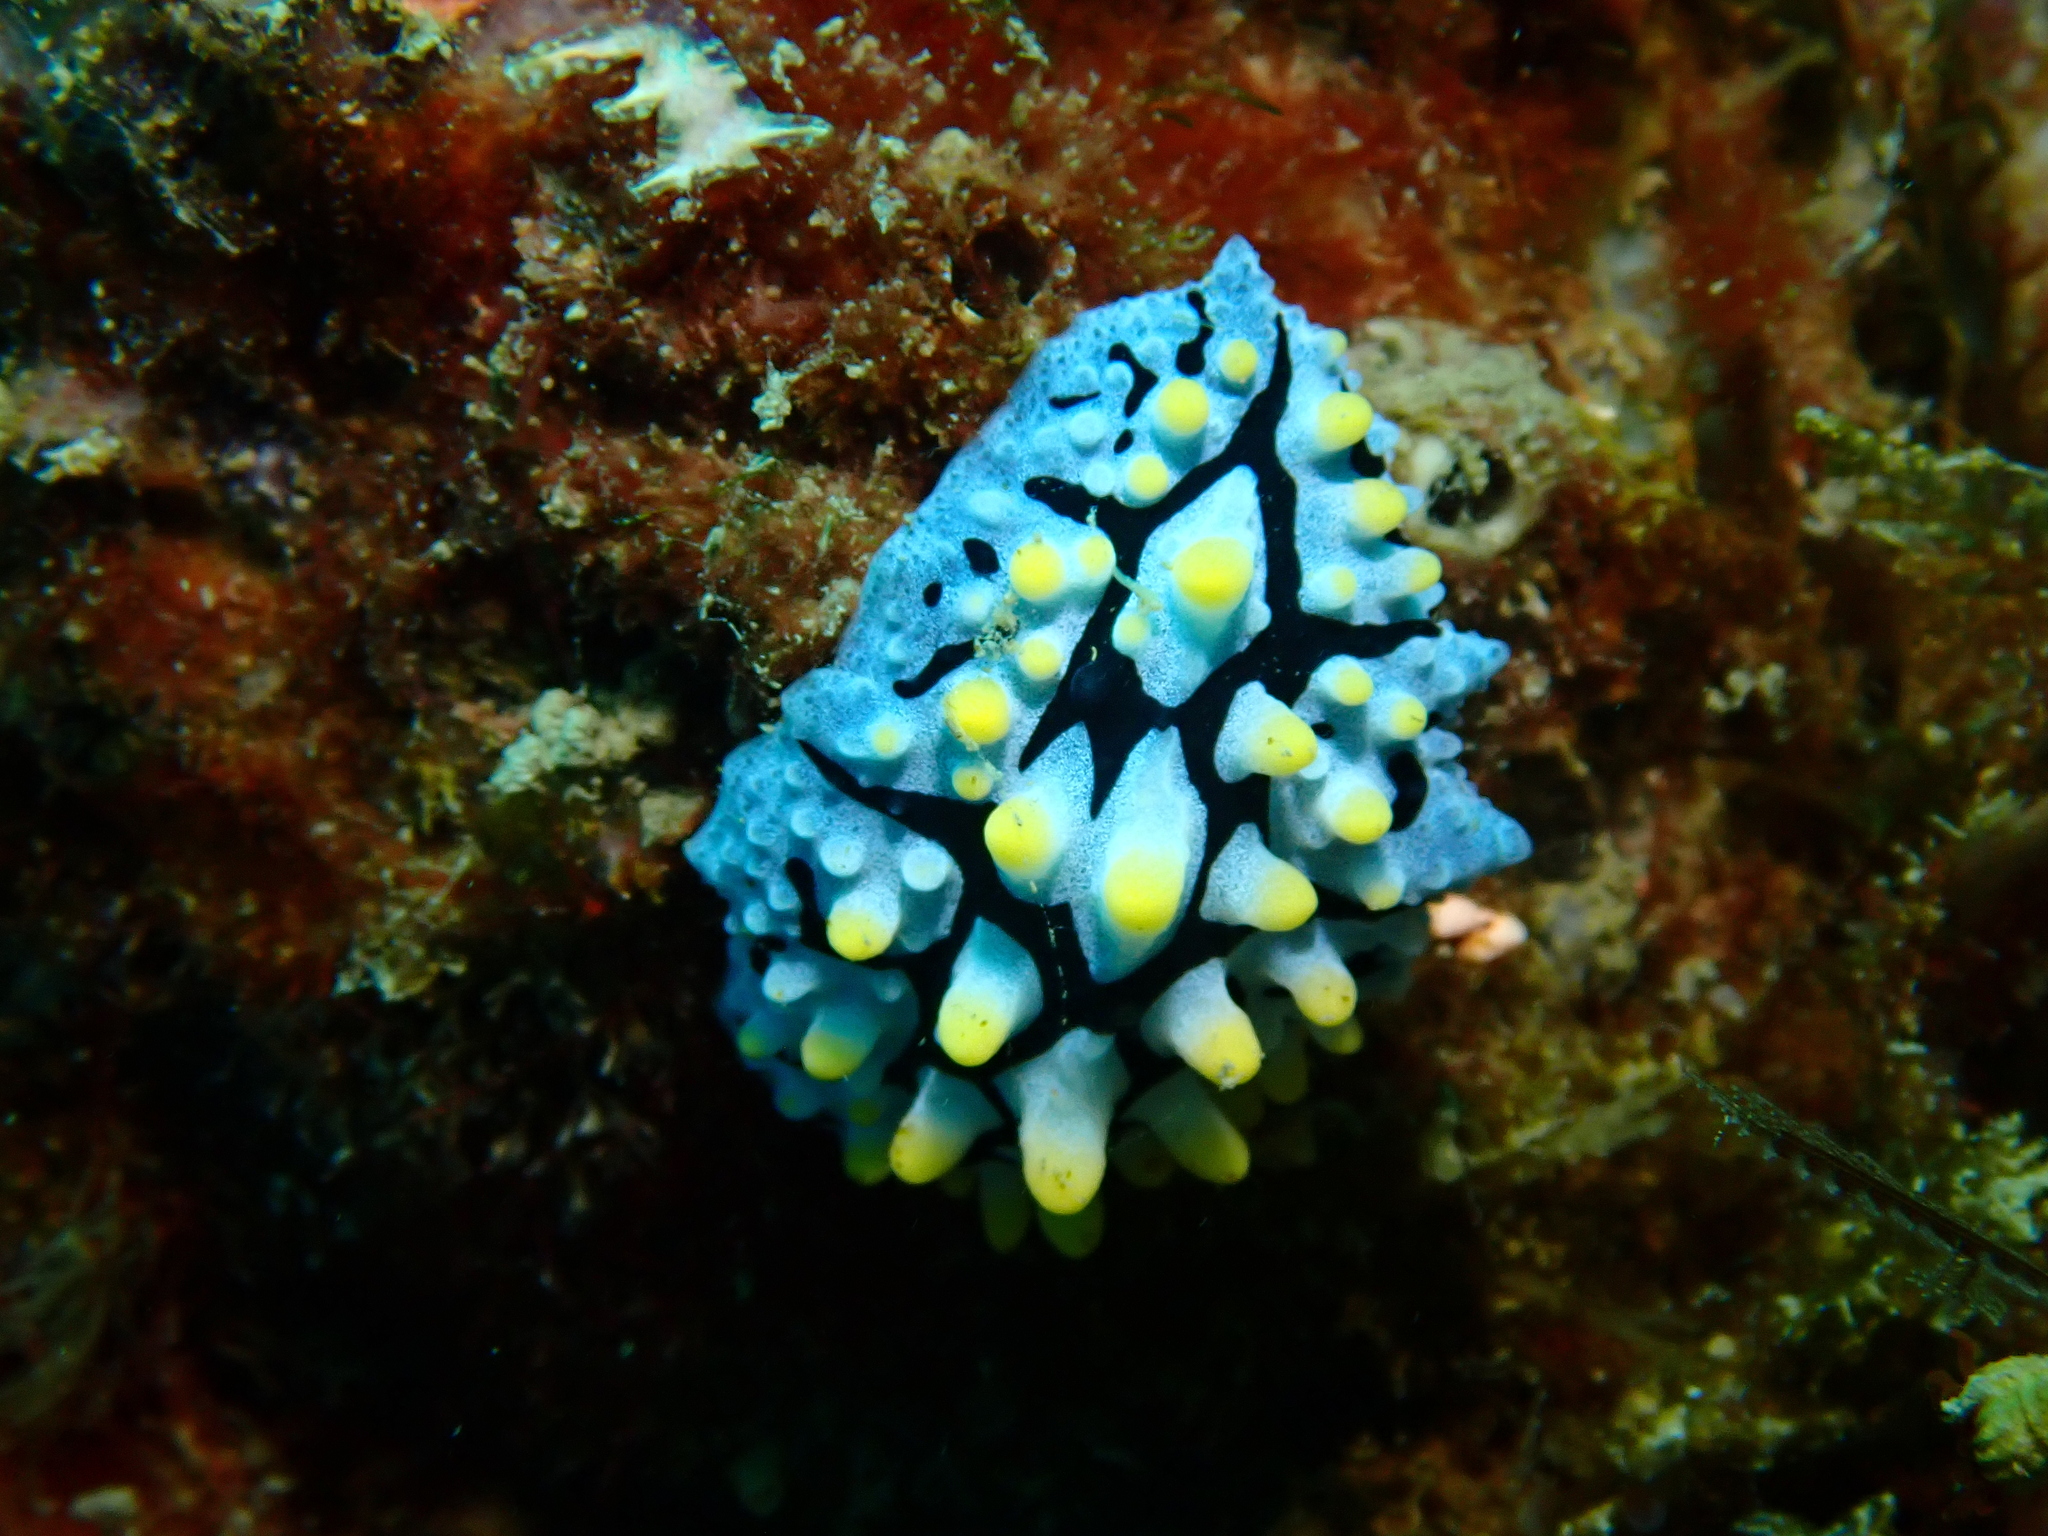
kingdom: Animalia
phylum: Mollusca
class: Gastropoda
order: Nudibranchia
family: Phyllidiidae
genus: Phyllidia
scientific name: Phyllidia picta
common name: Black-rayed phyllidia
